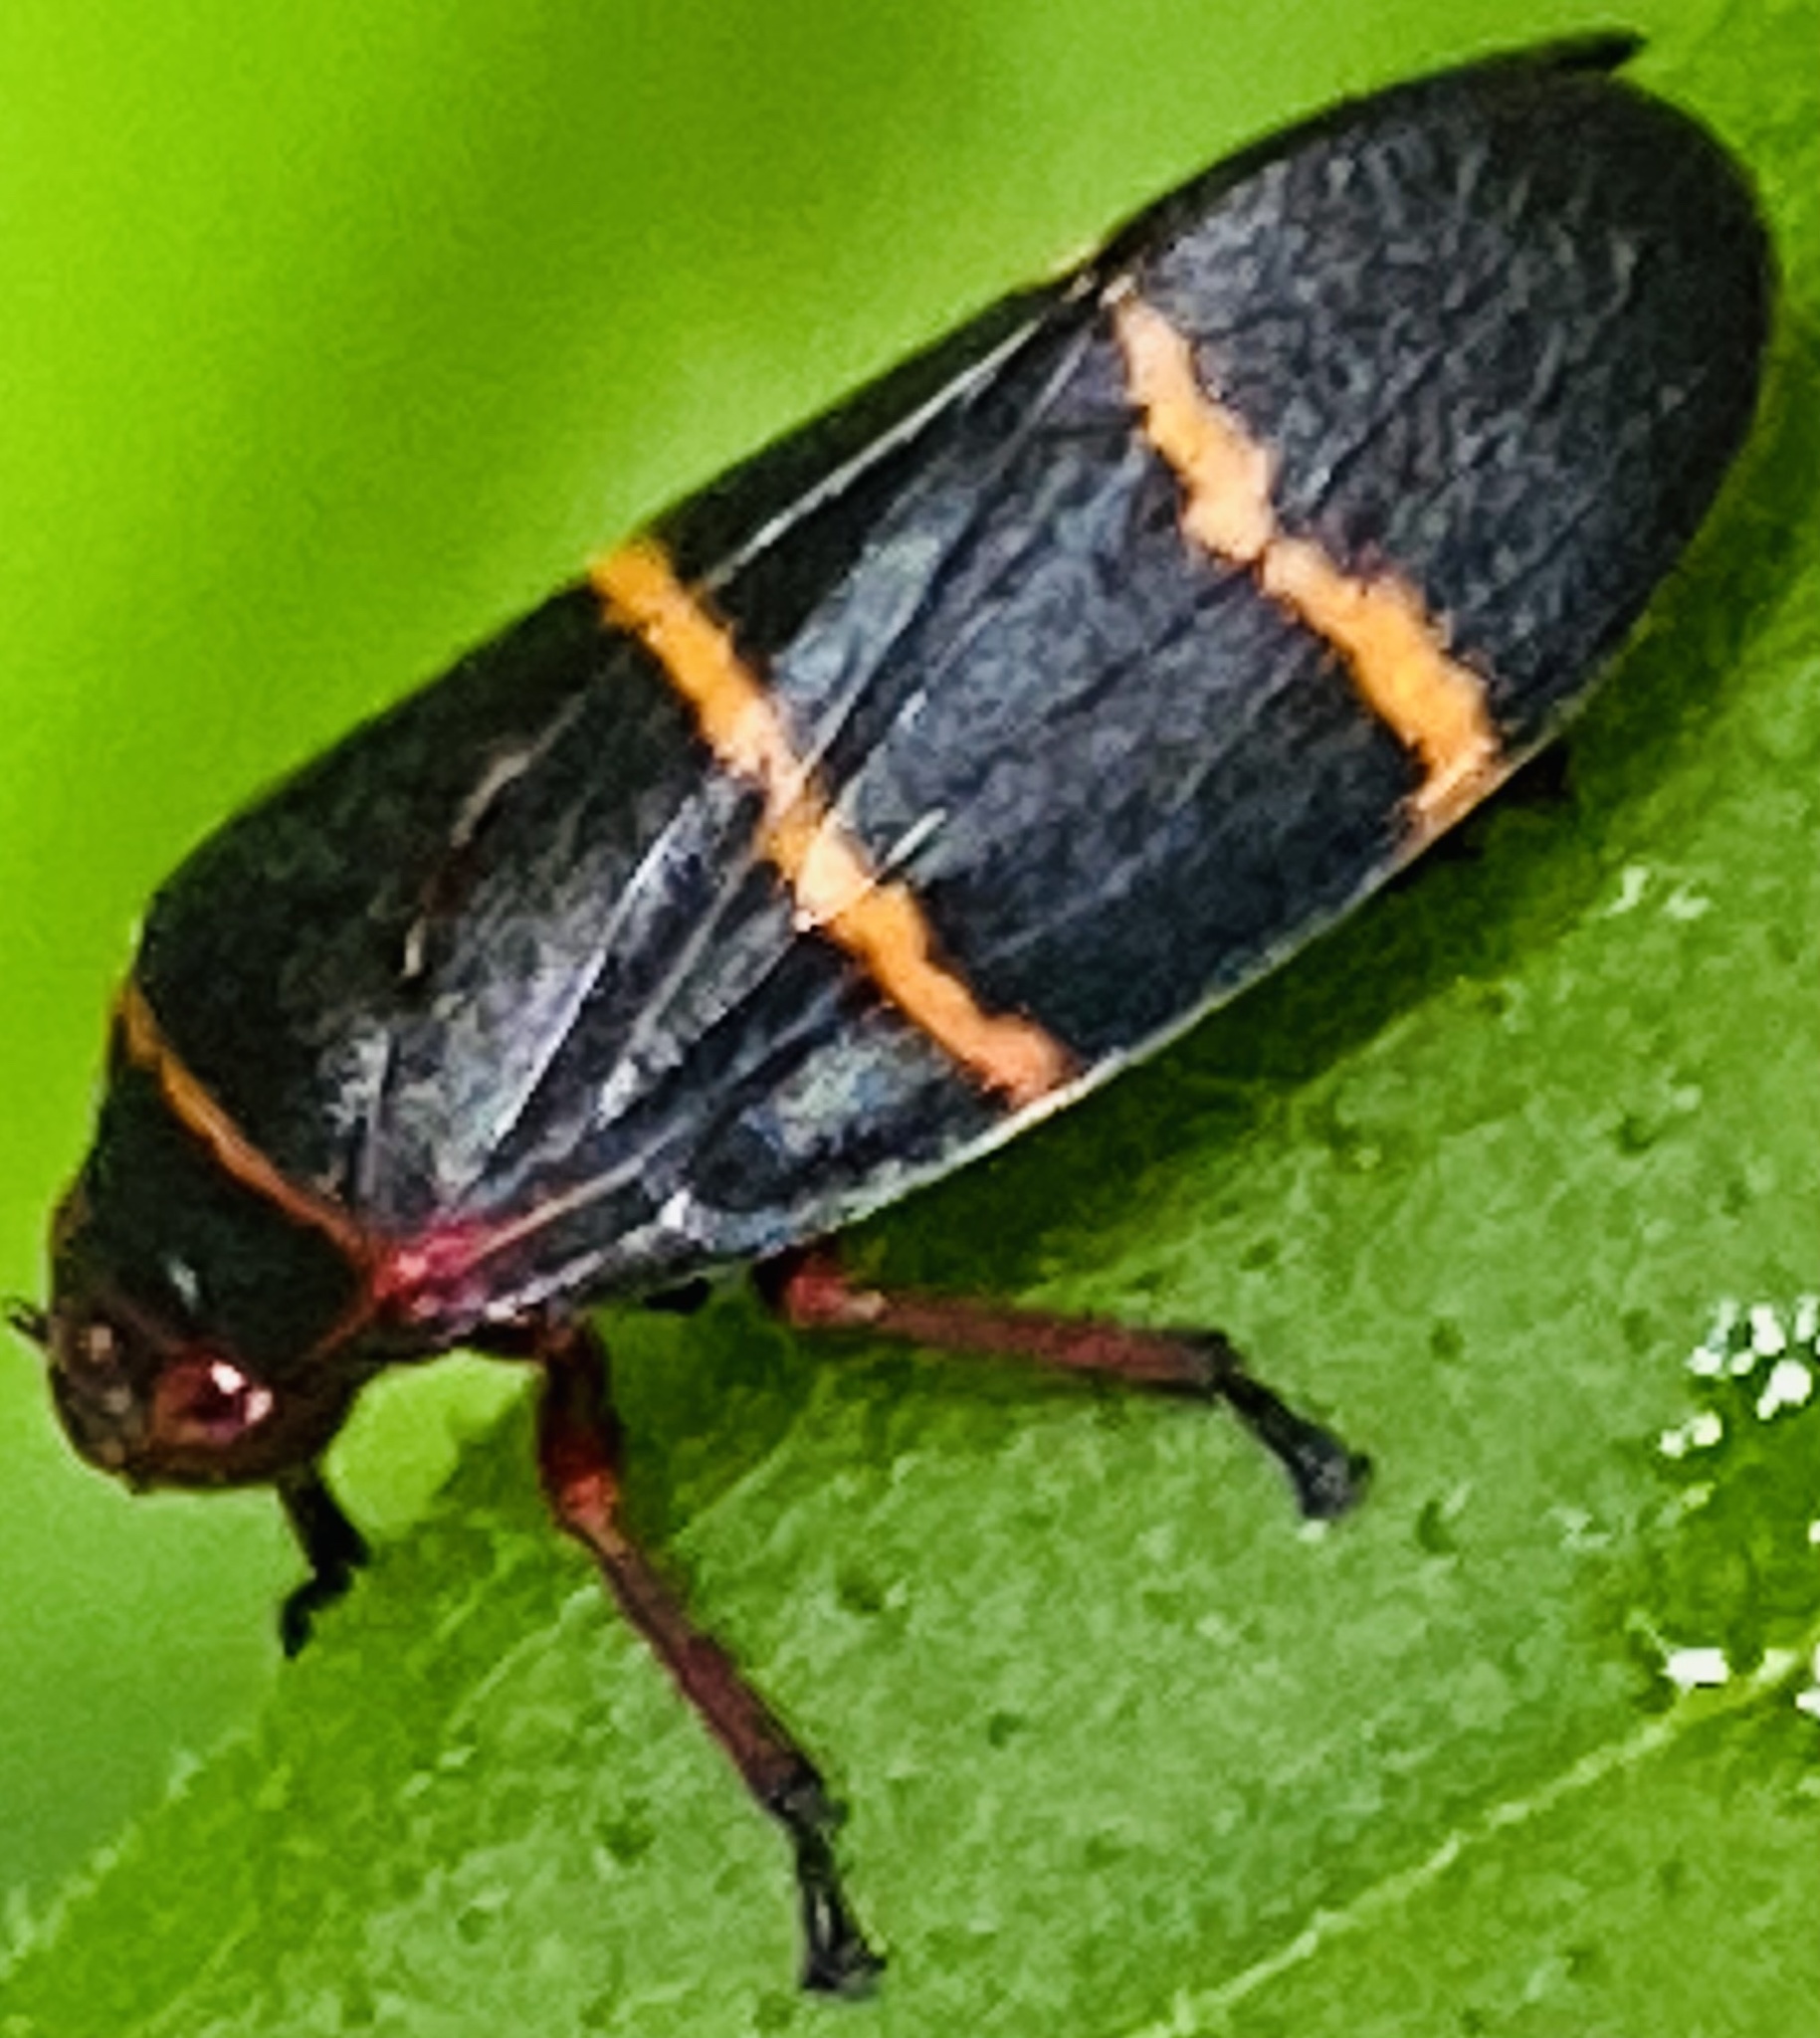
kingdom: Animalia
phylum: Arthropoda
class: Insecta
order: Hemiptera
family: Cercopidae
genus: Prosapia
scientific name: Prosapia bicincta
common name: Twolined spittlebug
